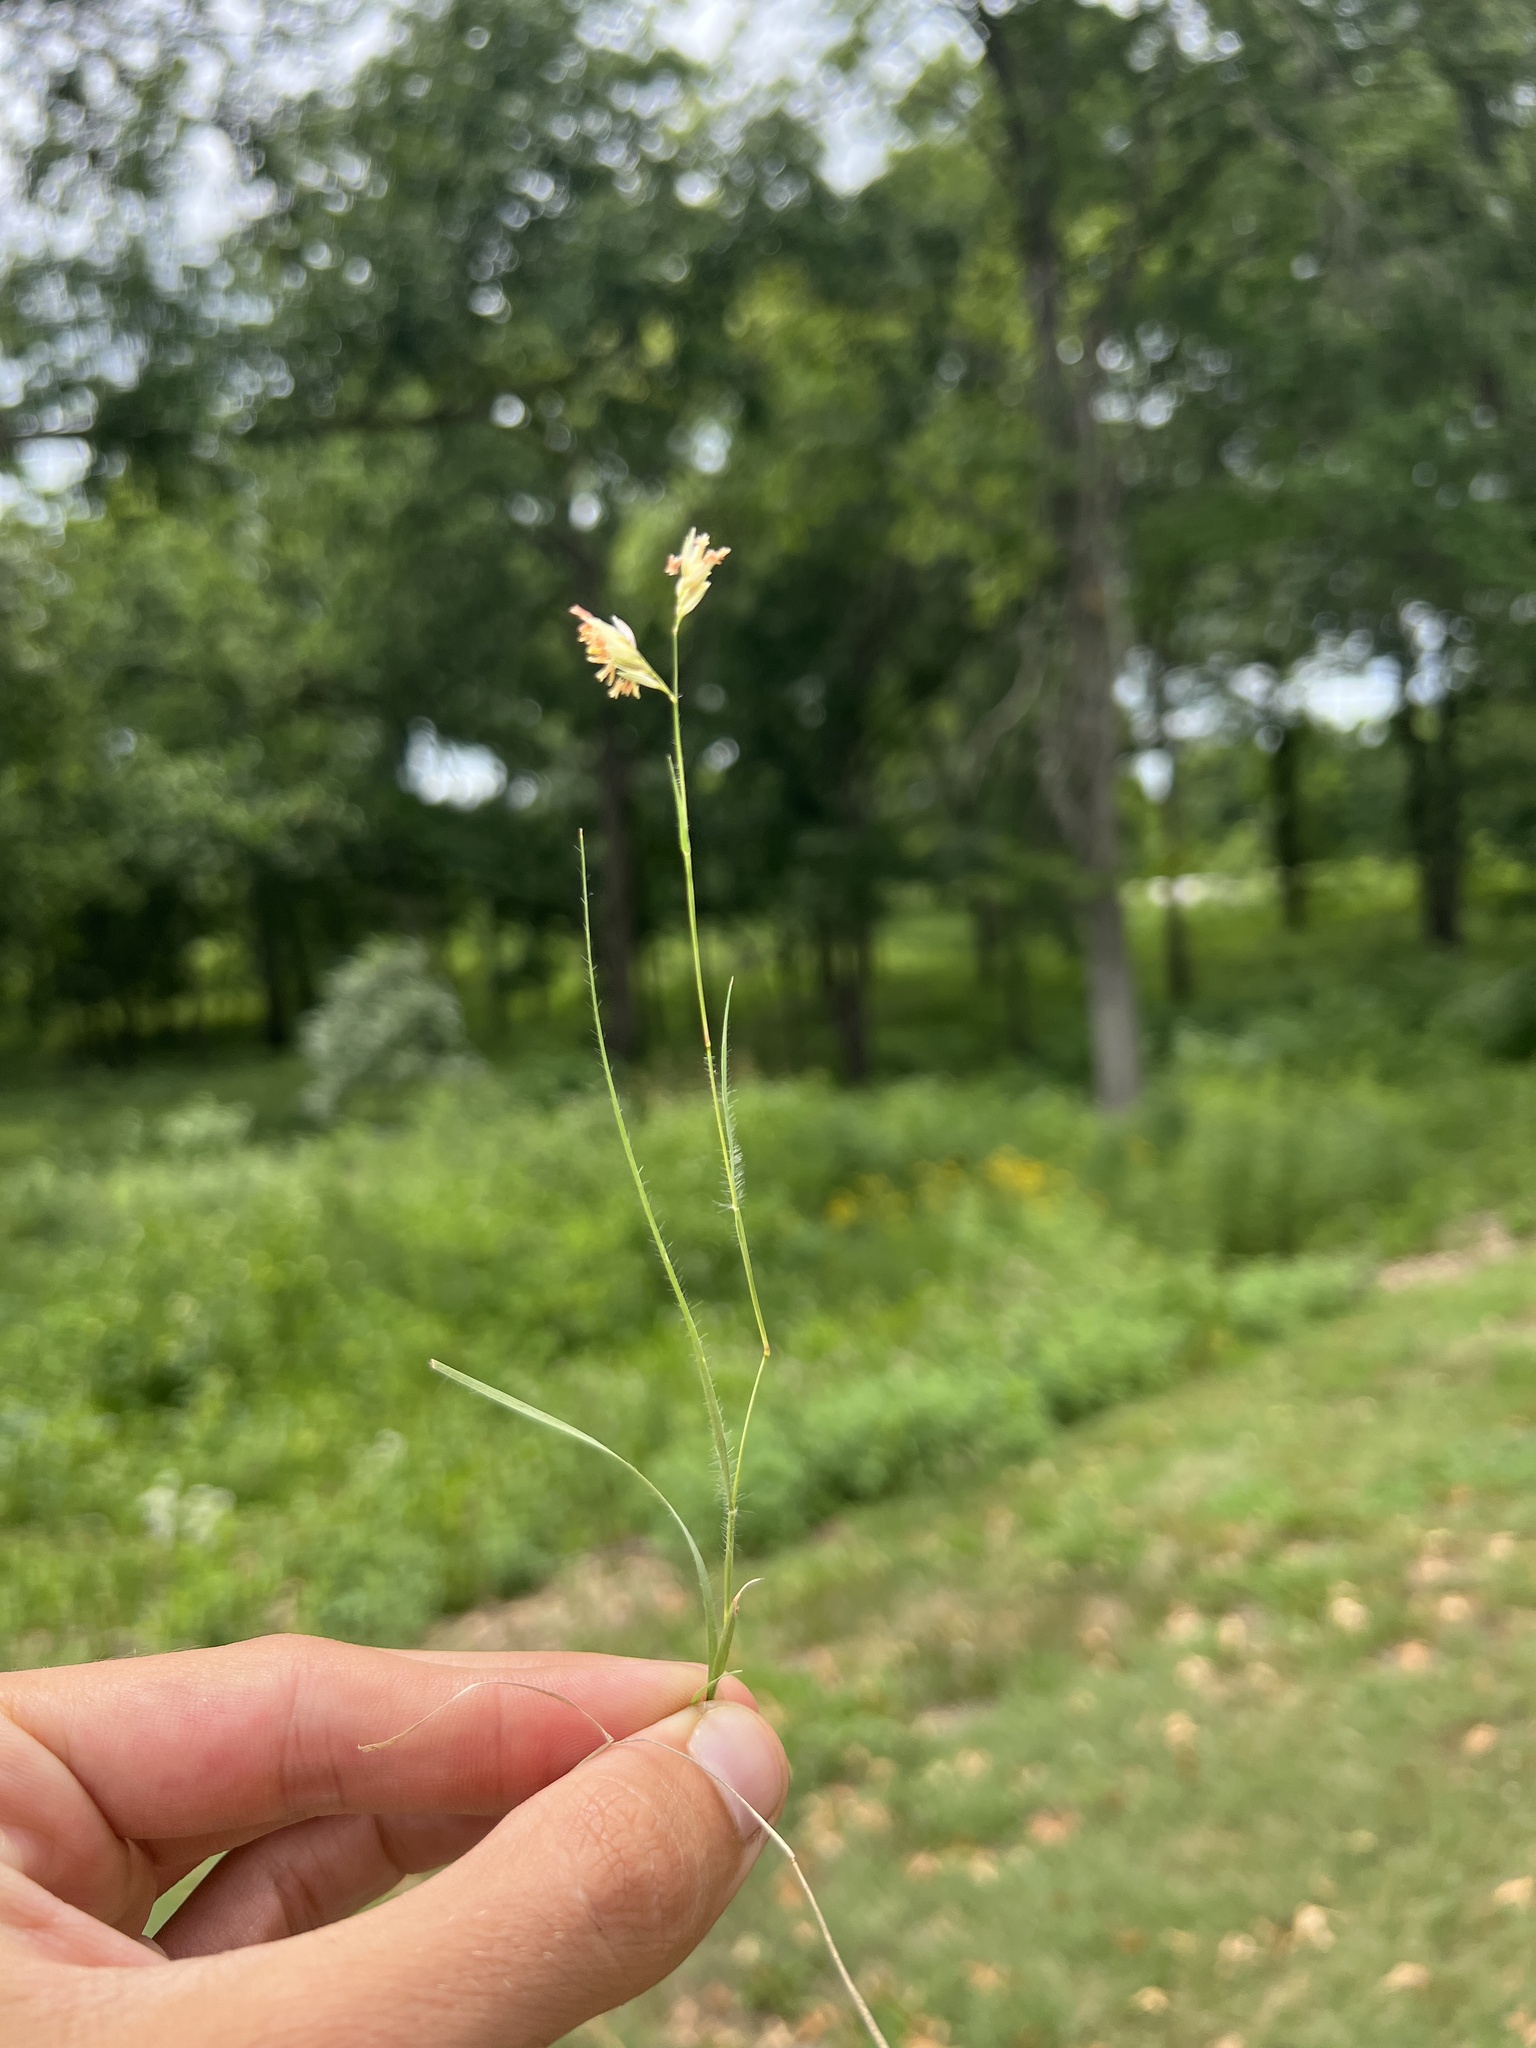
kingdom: Plantae
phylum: Tracheophyta
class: Liliopsida
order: Poales
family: Poaceae
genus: Bouteloua
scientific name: Bouteloua dactyloides
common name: Buffalo grass
